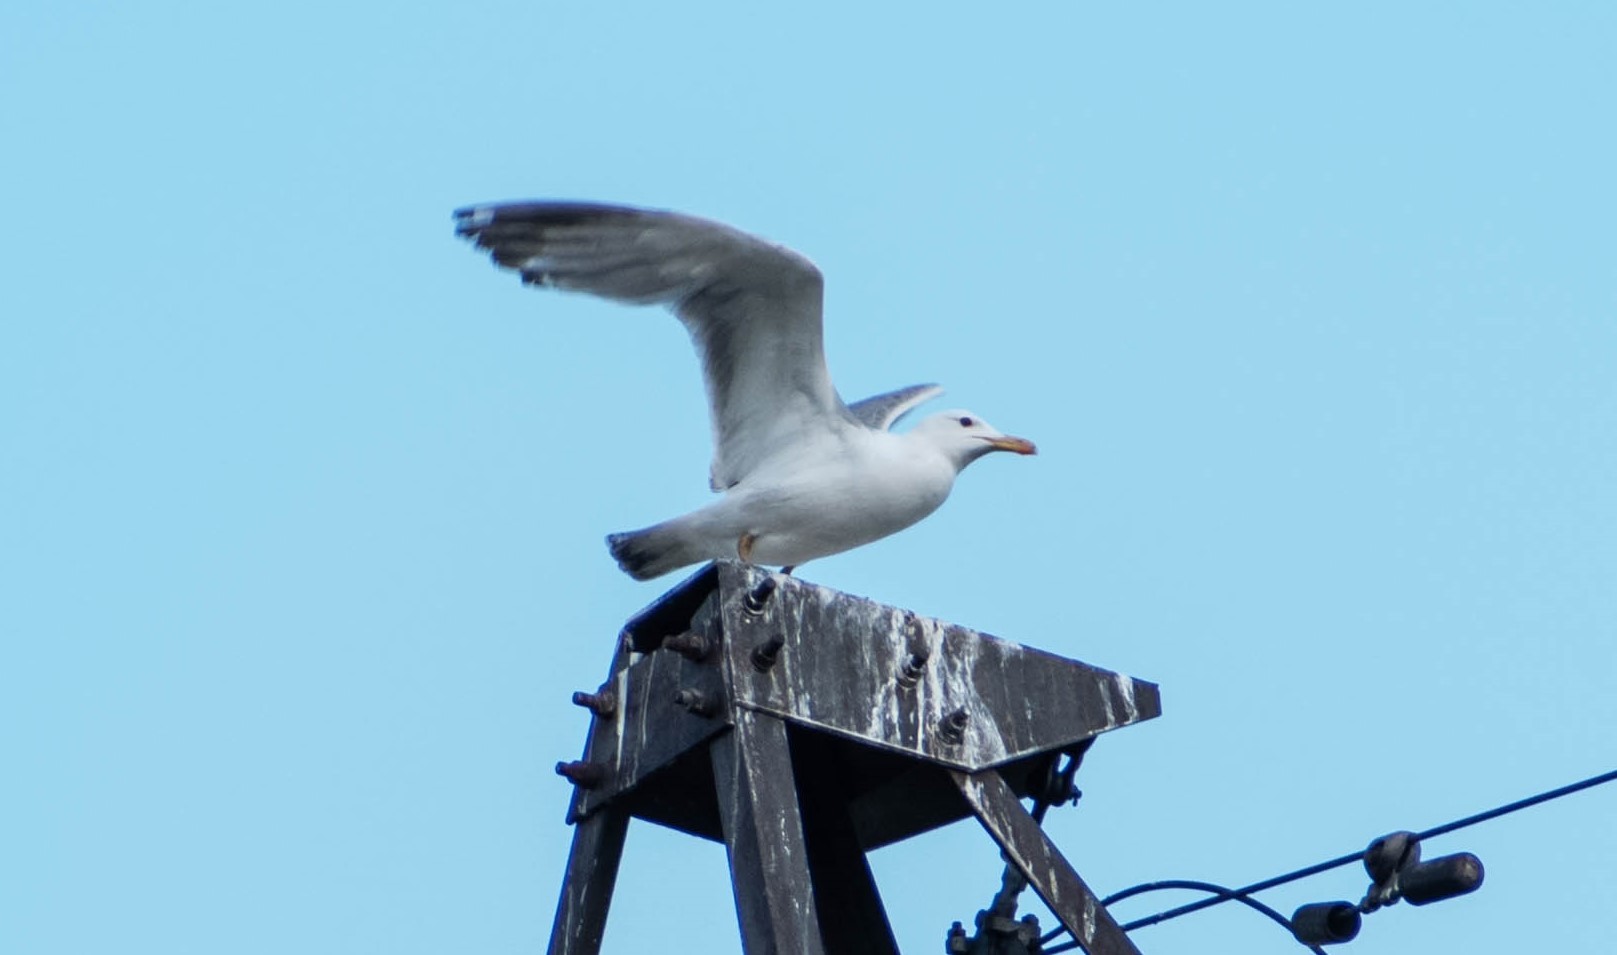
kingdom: Animalia
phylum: Chordata
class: Aves
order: Charadriiformes
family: Laridae
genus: Larus
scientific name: Larus cachinnans
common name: Caspian gull
